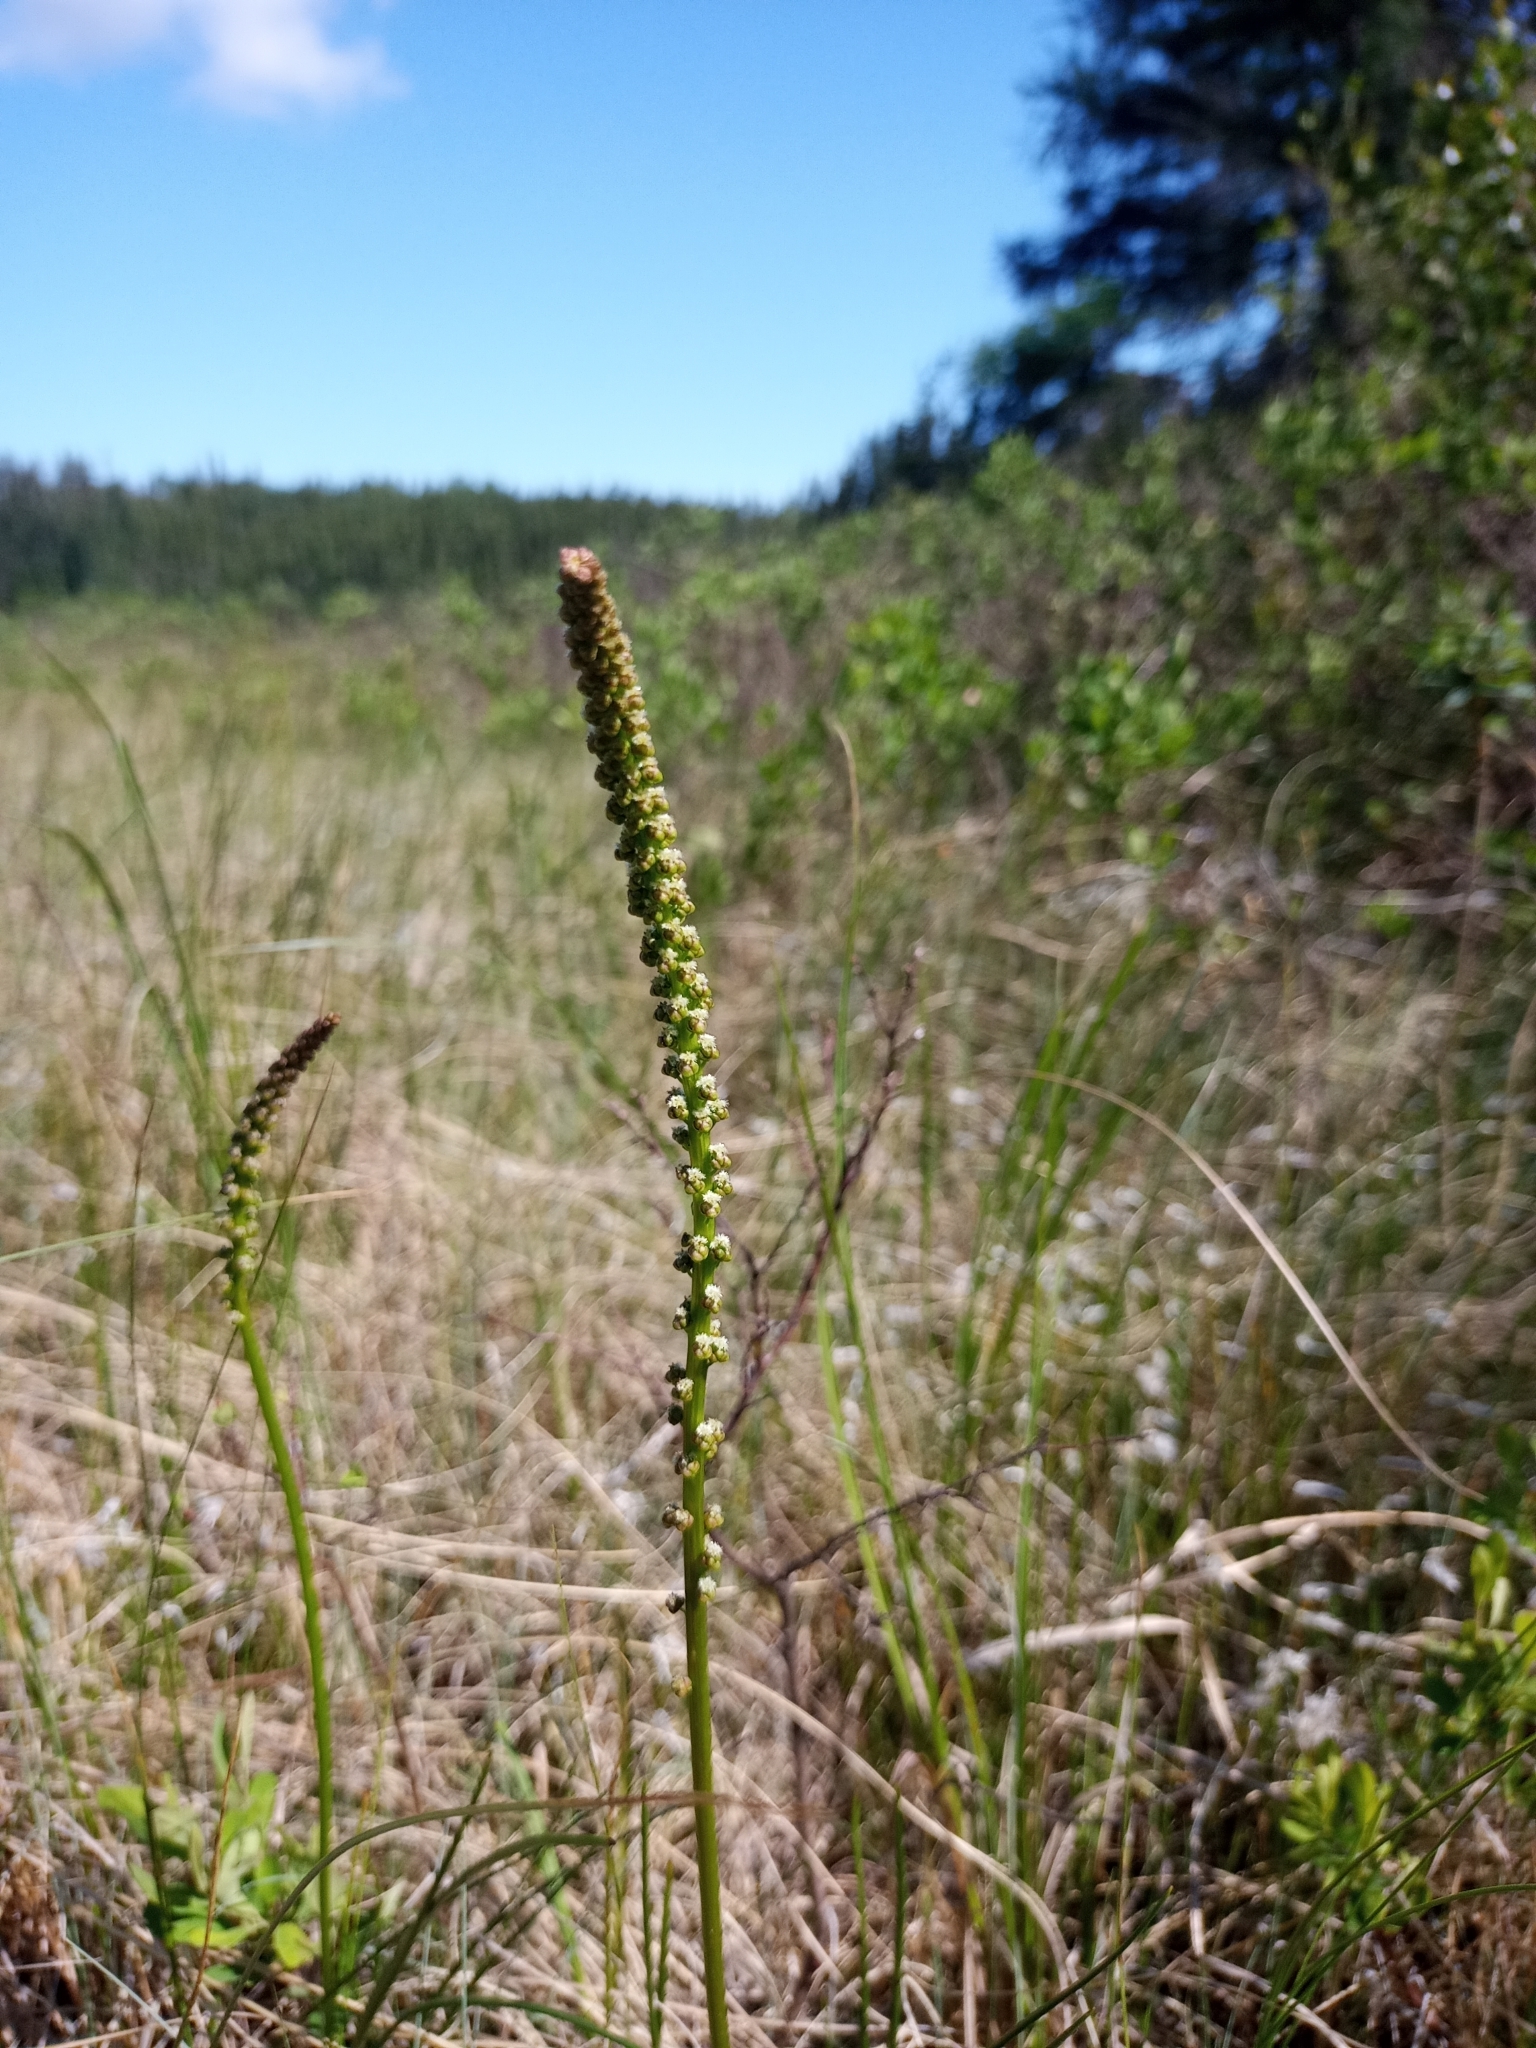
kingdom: Plantae
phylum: Tracheophyta
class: Liliopsida
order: Alismatales
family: Juncaginaceae
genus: Triglochin
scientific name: Triglochin maritima
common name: Sea arrowgrass
